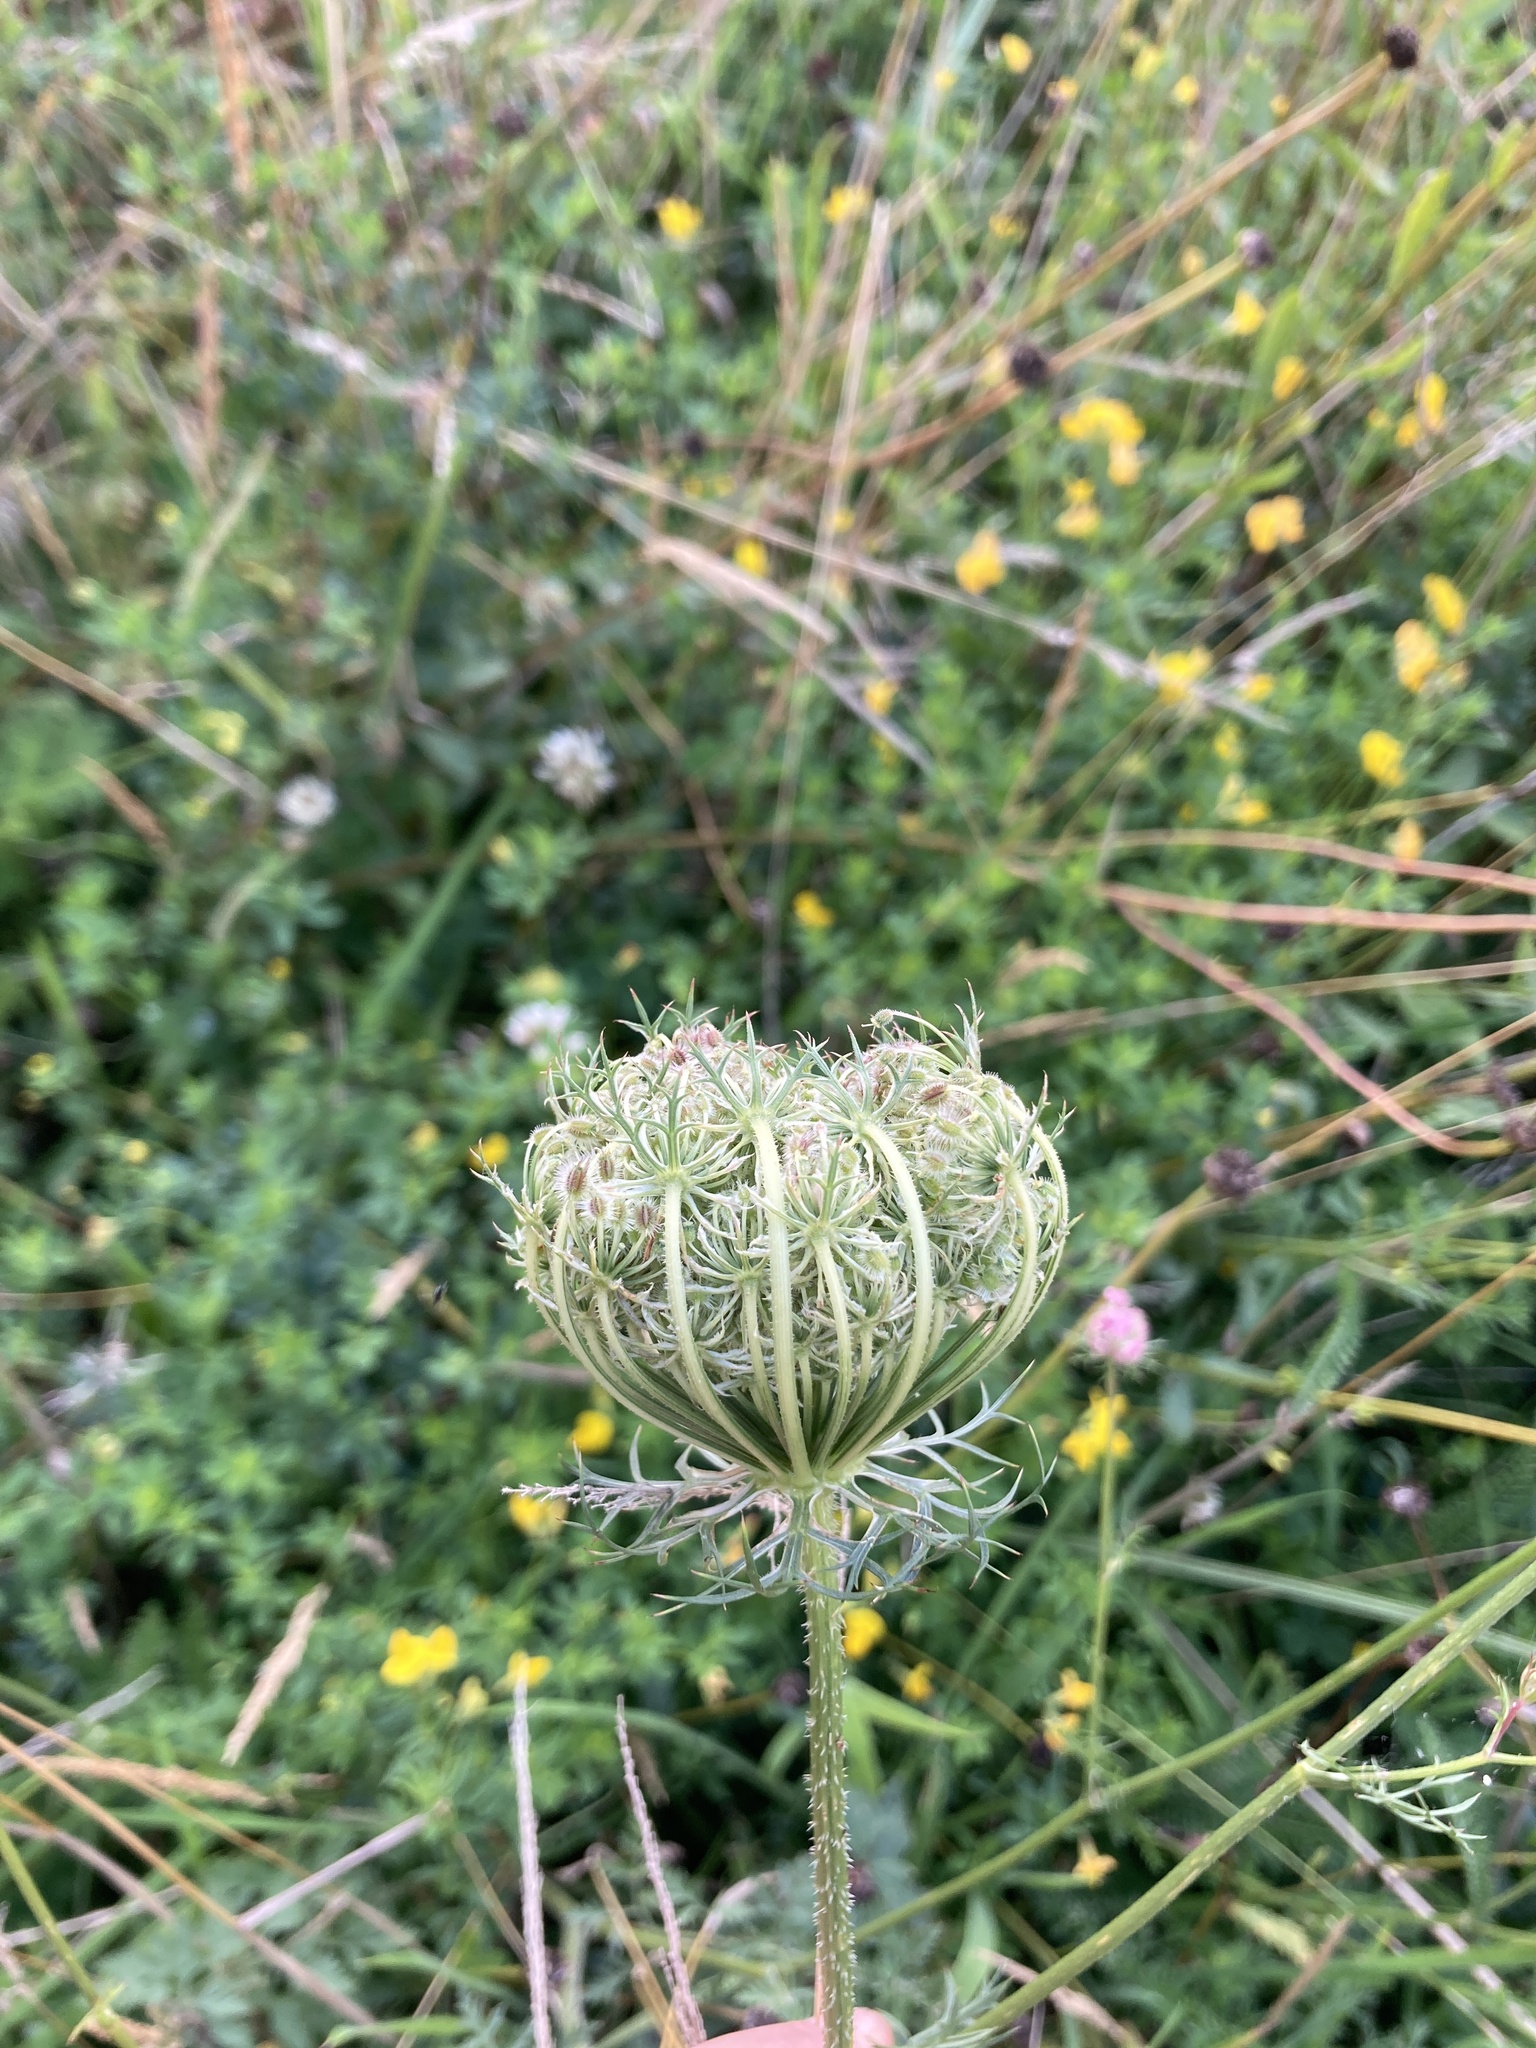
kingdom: Plantae
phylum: Tracheophyta
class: Magnoliopsida
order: Apiales
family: Apiaceae
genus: Daucus
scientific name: Daucus carota
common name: Wild carrot
